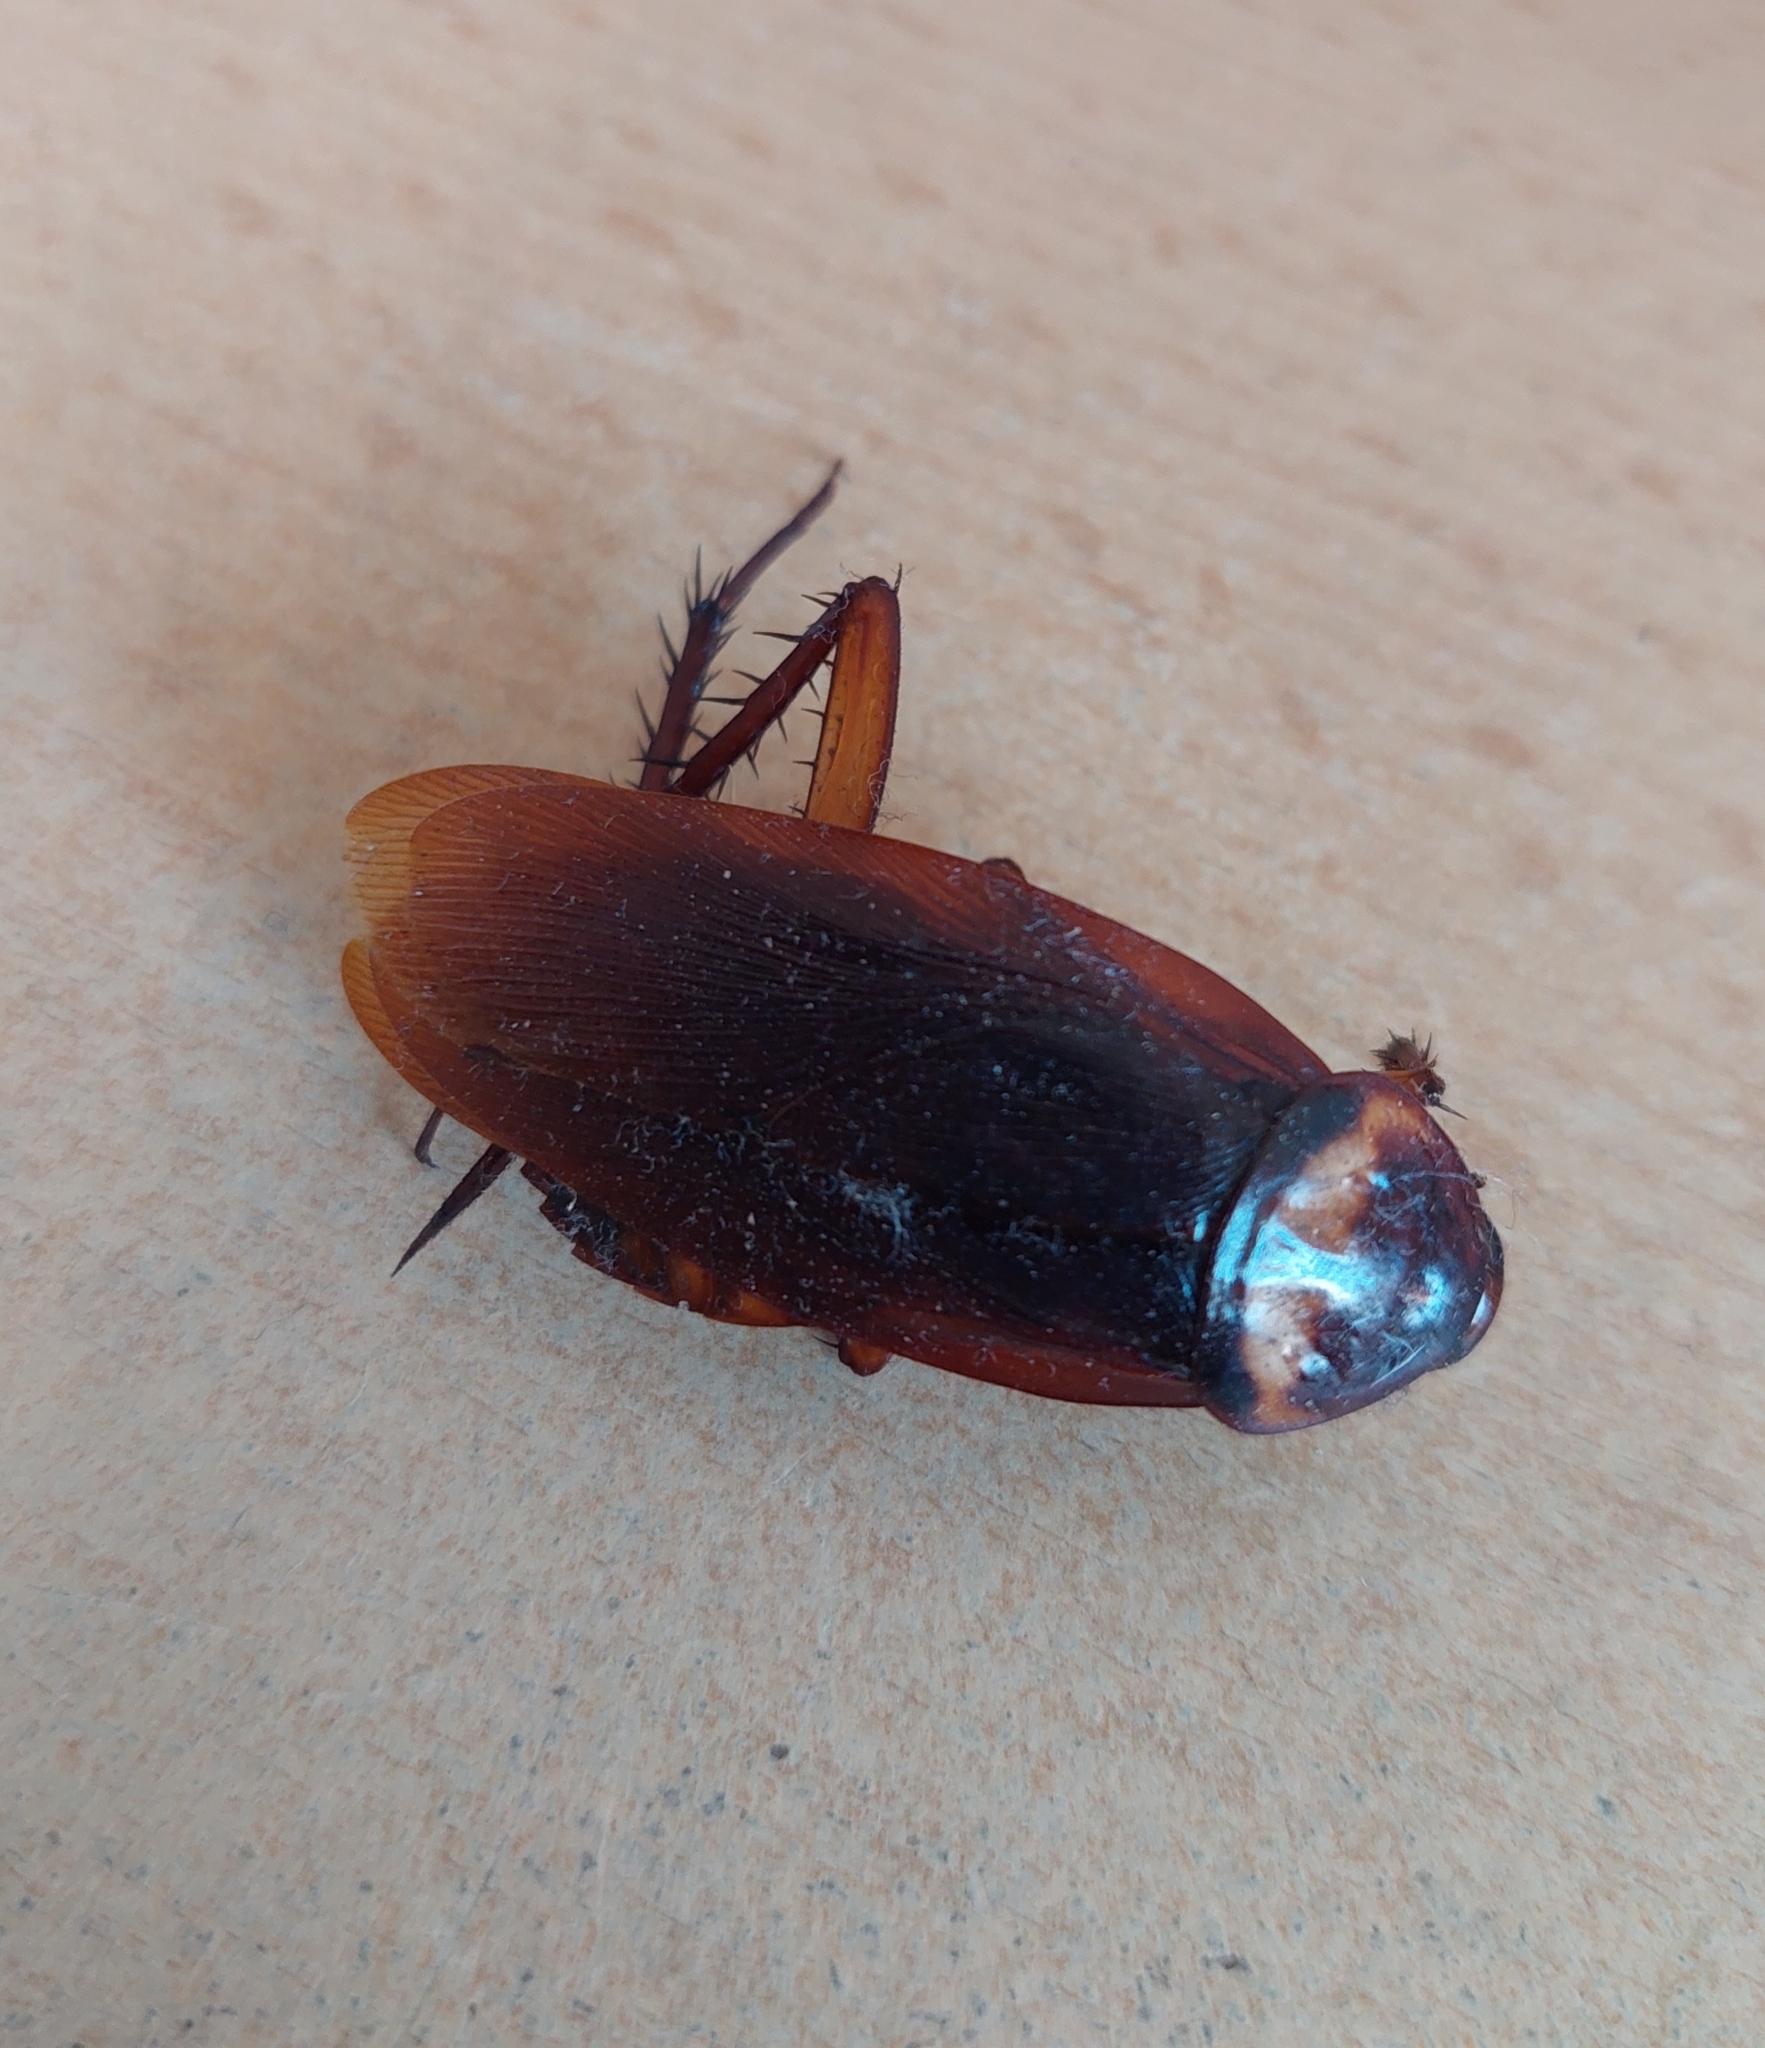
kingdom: Animalia
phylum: Arthropoda
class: Insecta
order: Blattodea
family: Blattidae
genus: Periplaneta
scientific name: Periplaneta americana
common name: American cockroach
